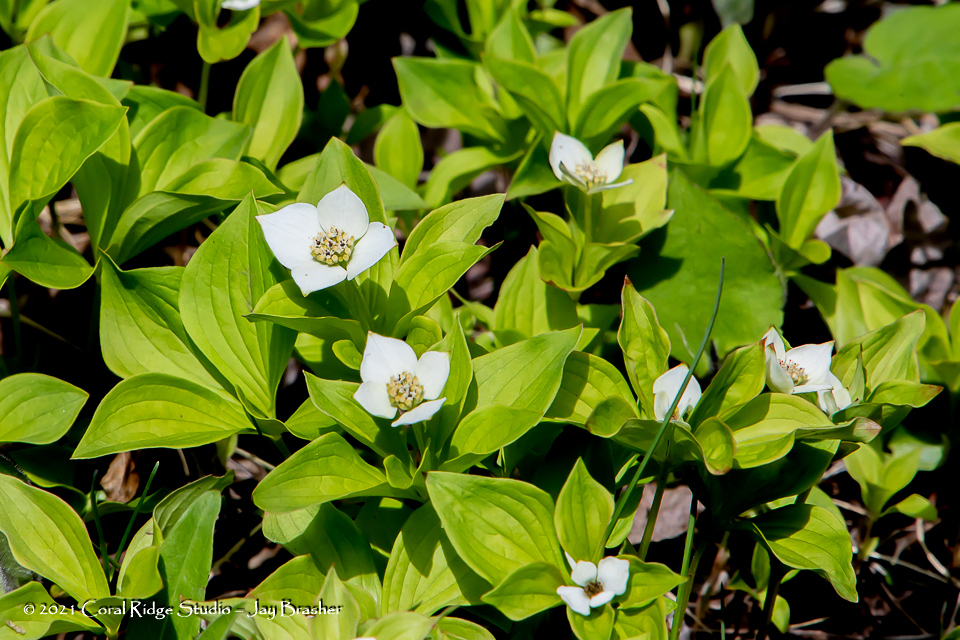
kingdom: Plantae
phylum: Tracheophyta
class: Magnoliopsida
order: Cornales
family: Cornaceae
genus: Cornus
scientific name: Cornus canadensis
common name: Creeping dogwood
